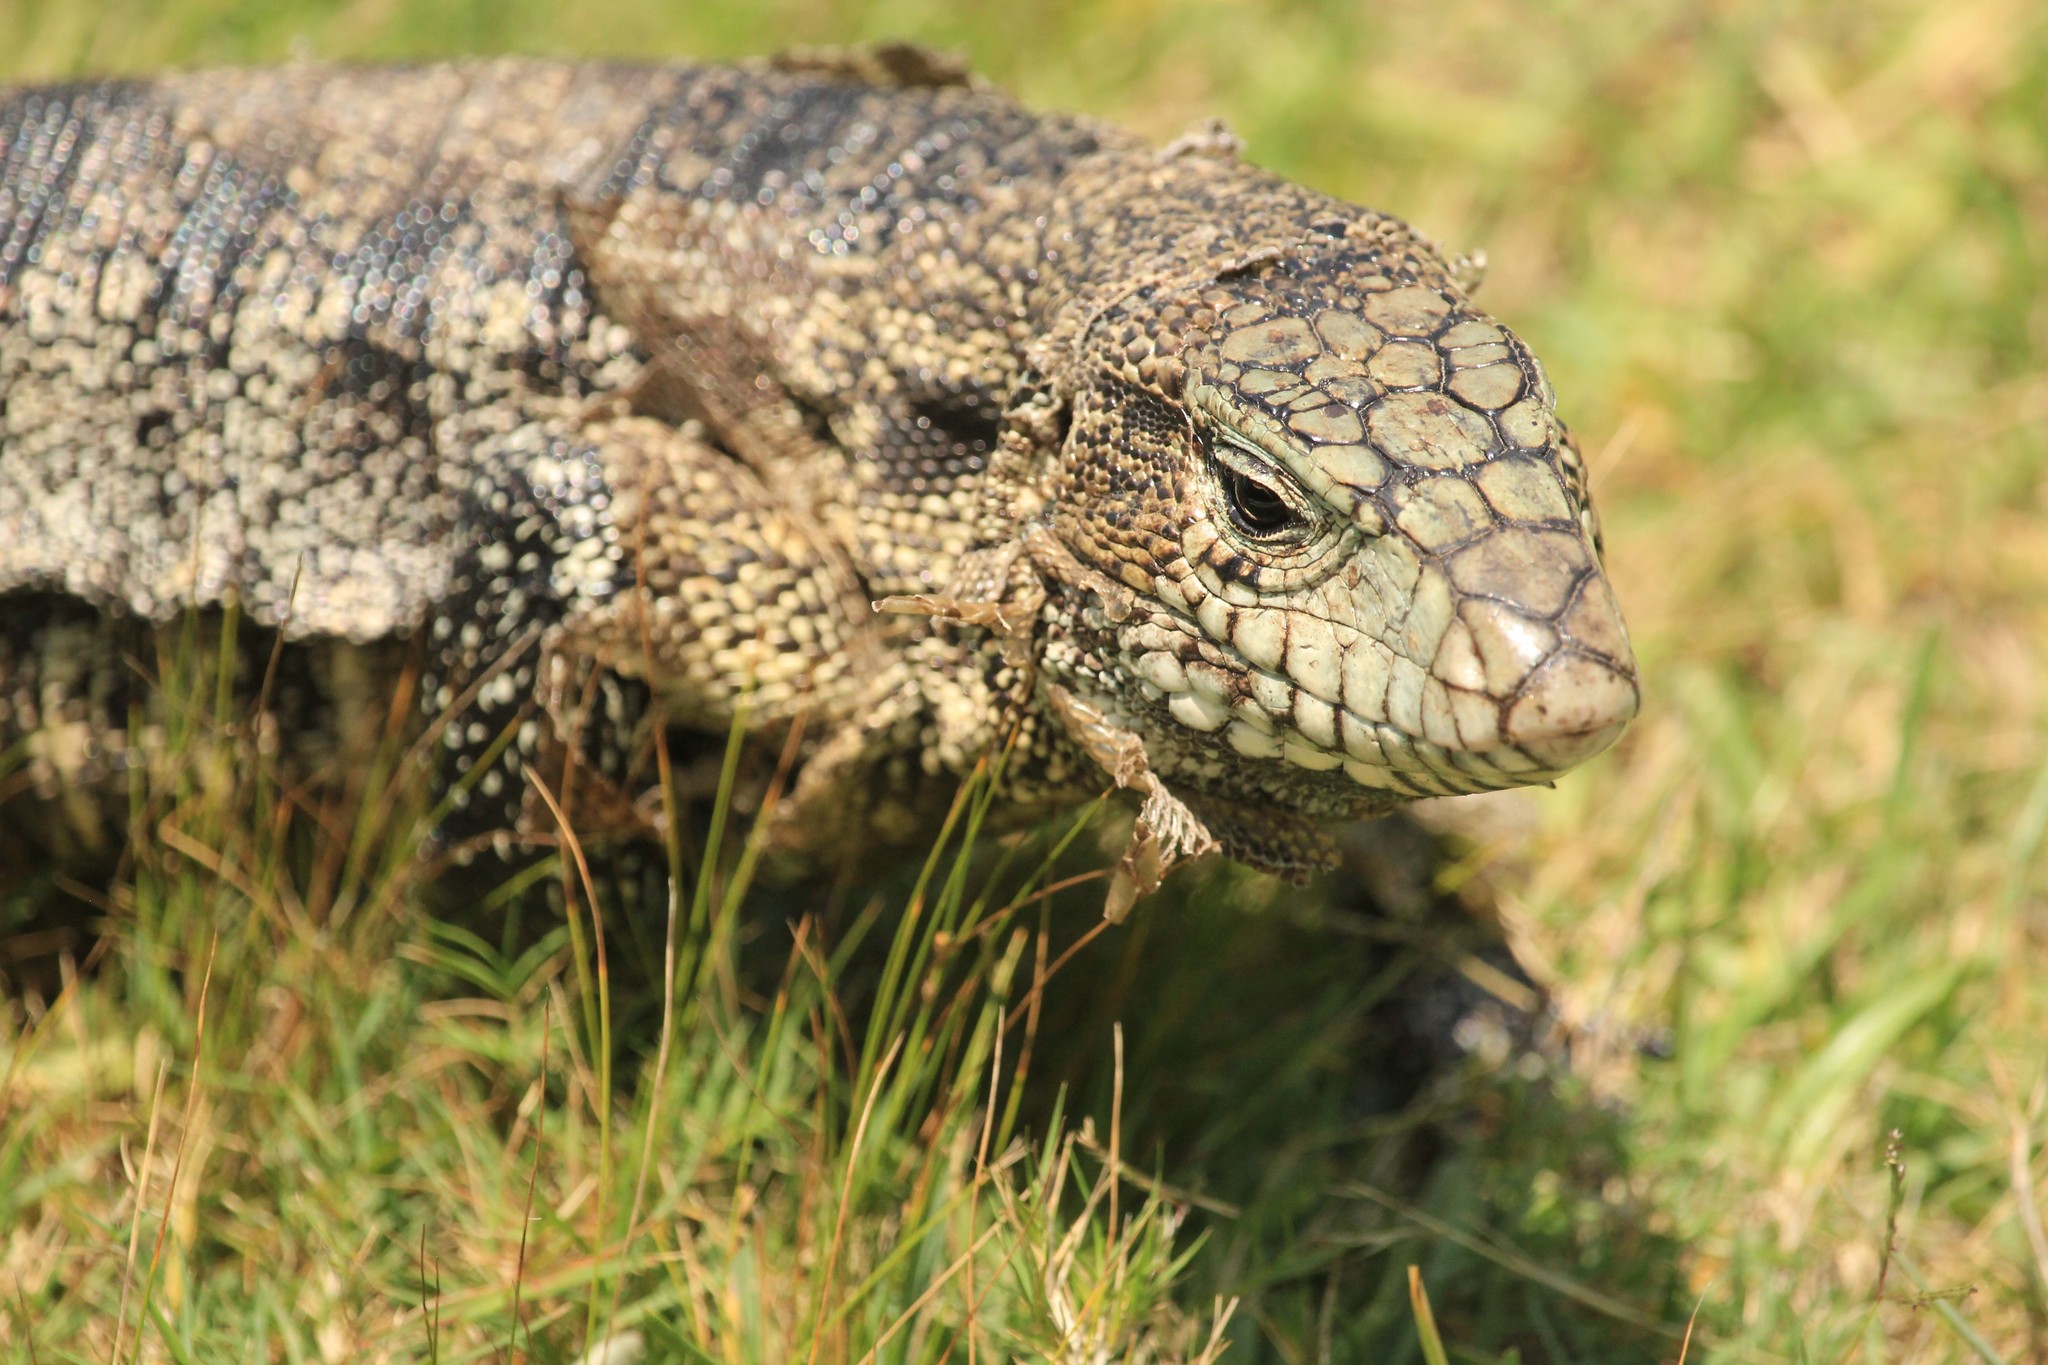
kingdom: Animalia
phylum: Chordata
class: Squamata
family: Teiidae
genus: Salvator
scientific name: Salvator merianae
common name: Argentine black and white tegu
